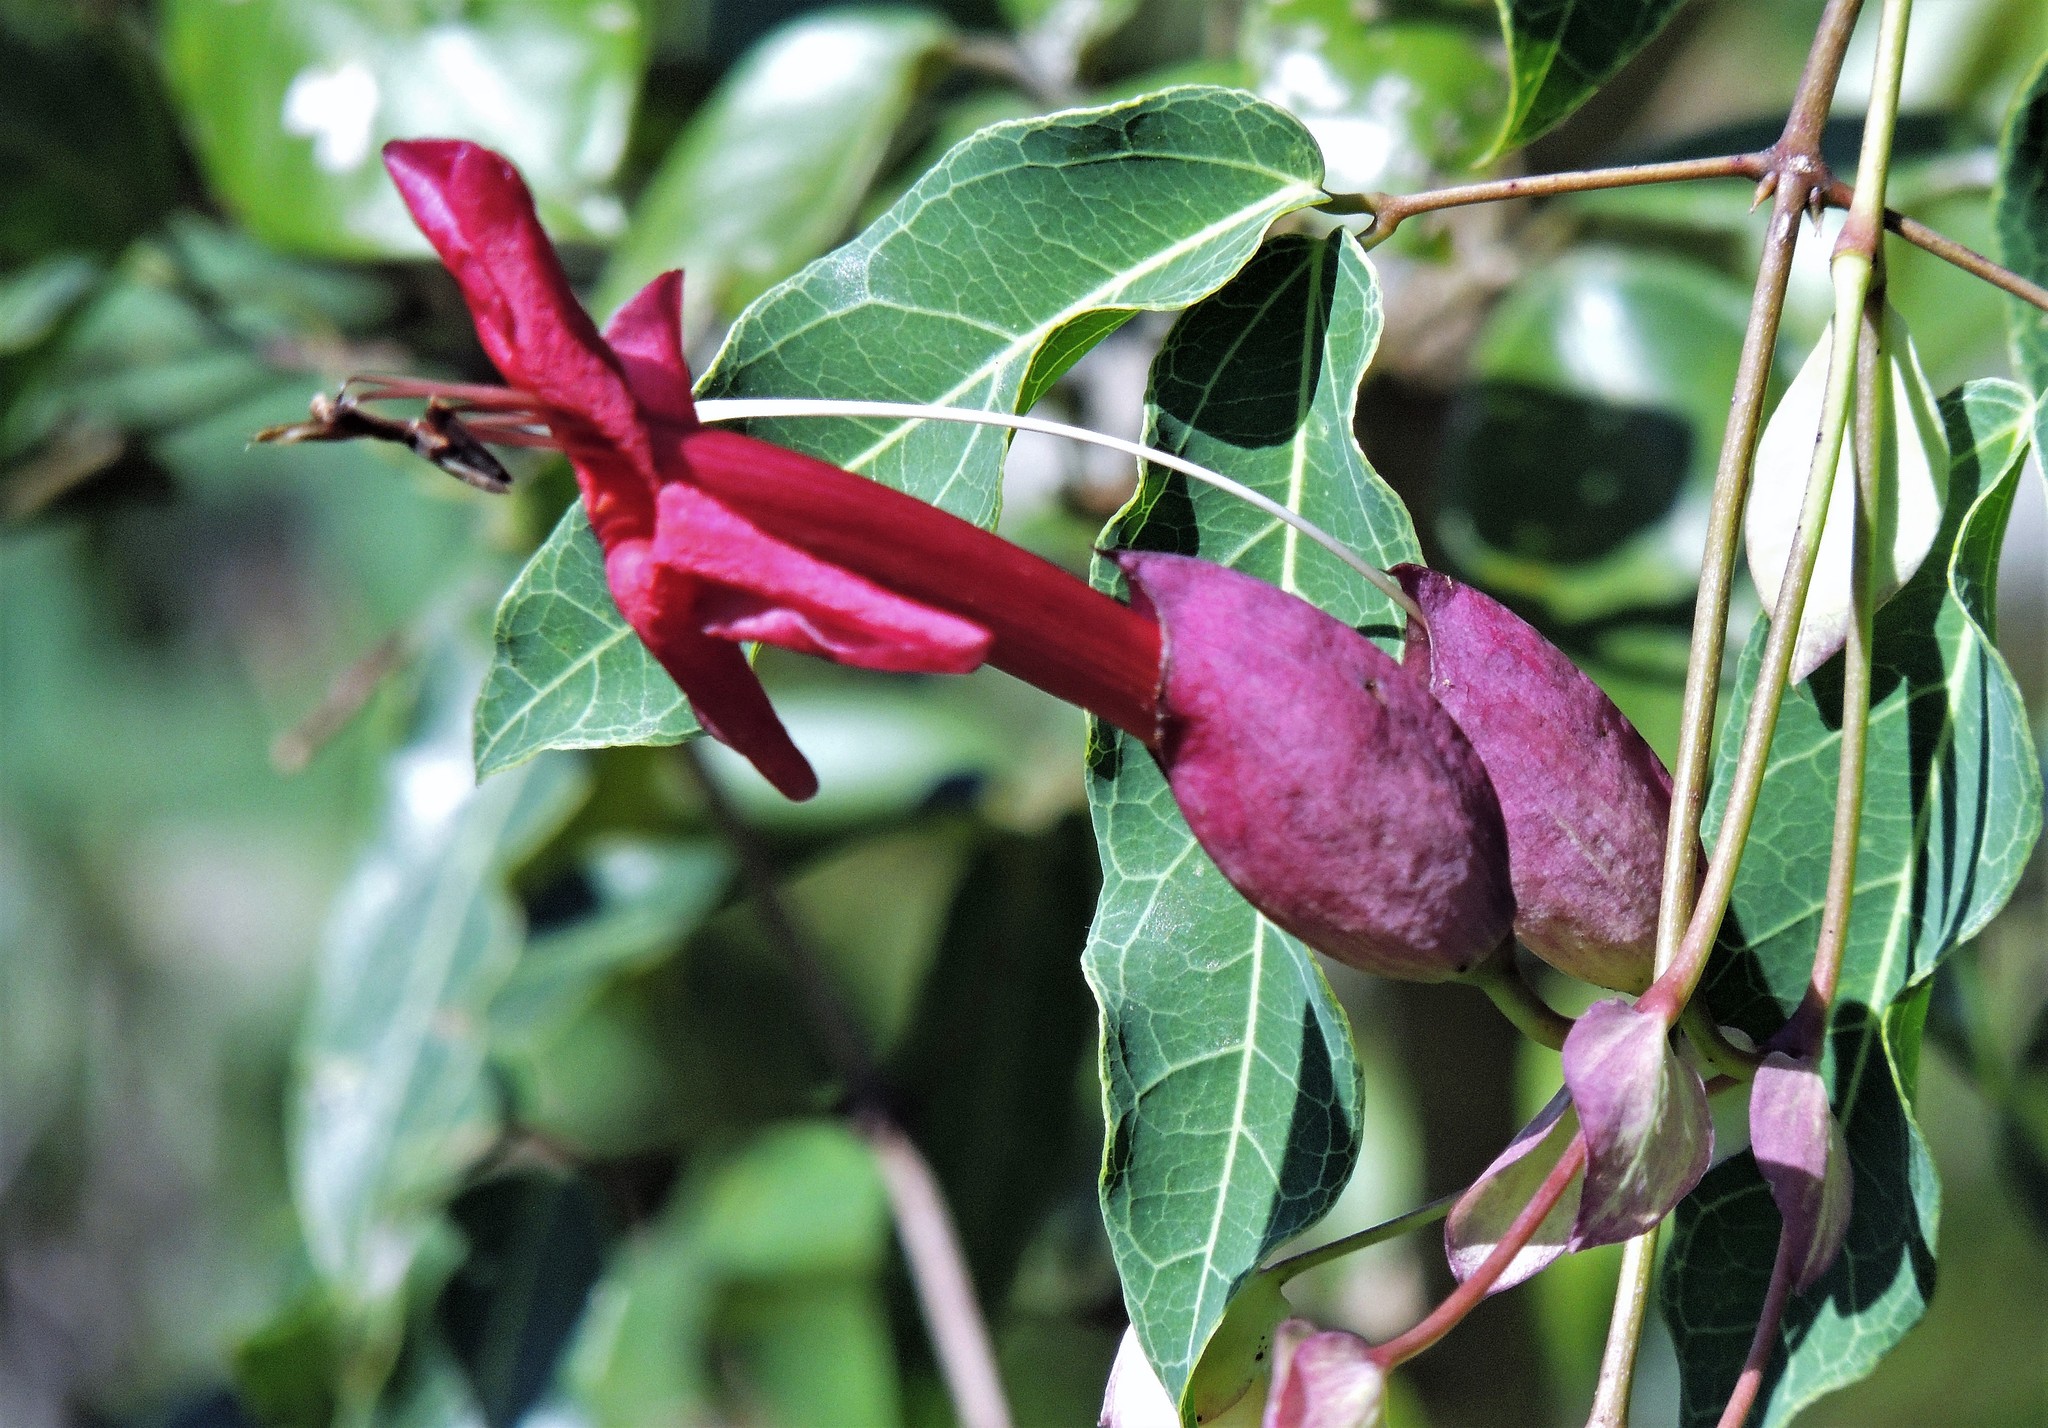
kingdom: Plantae
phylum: Tracheophyta
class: Magnoliopsida
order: Lamiales
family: Bignoniaceae
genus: Dolichandra
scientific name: Dolichandra cynanchoides
